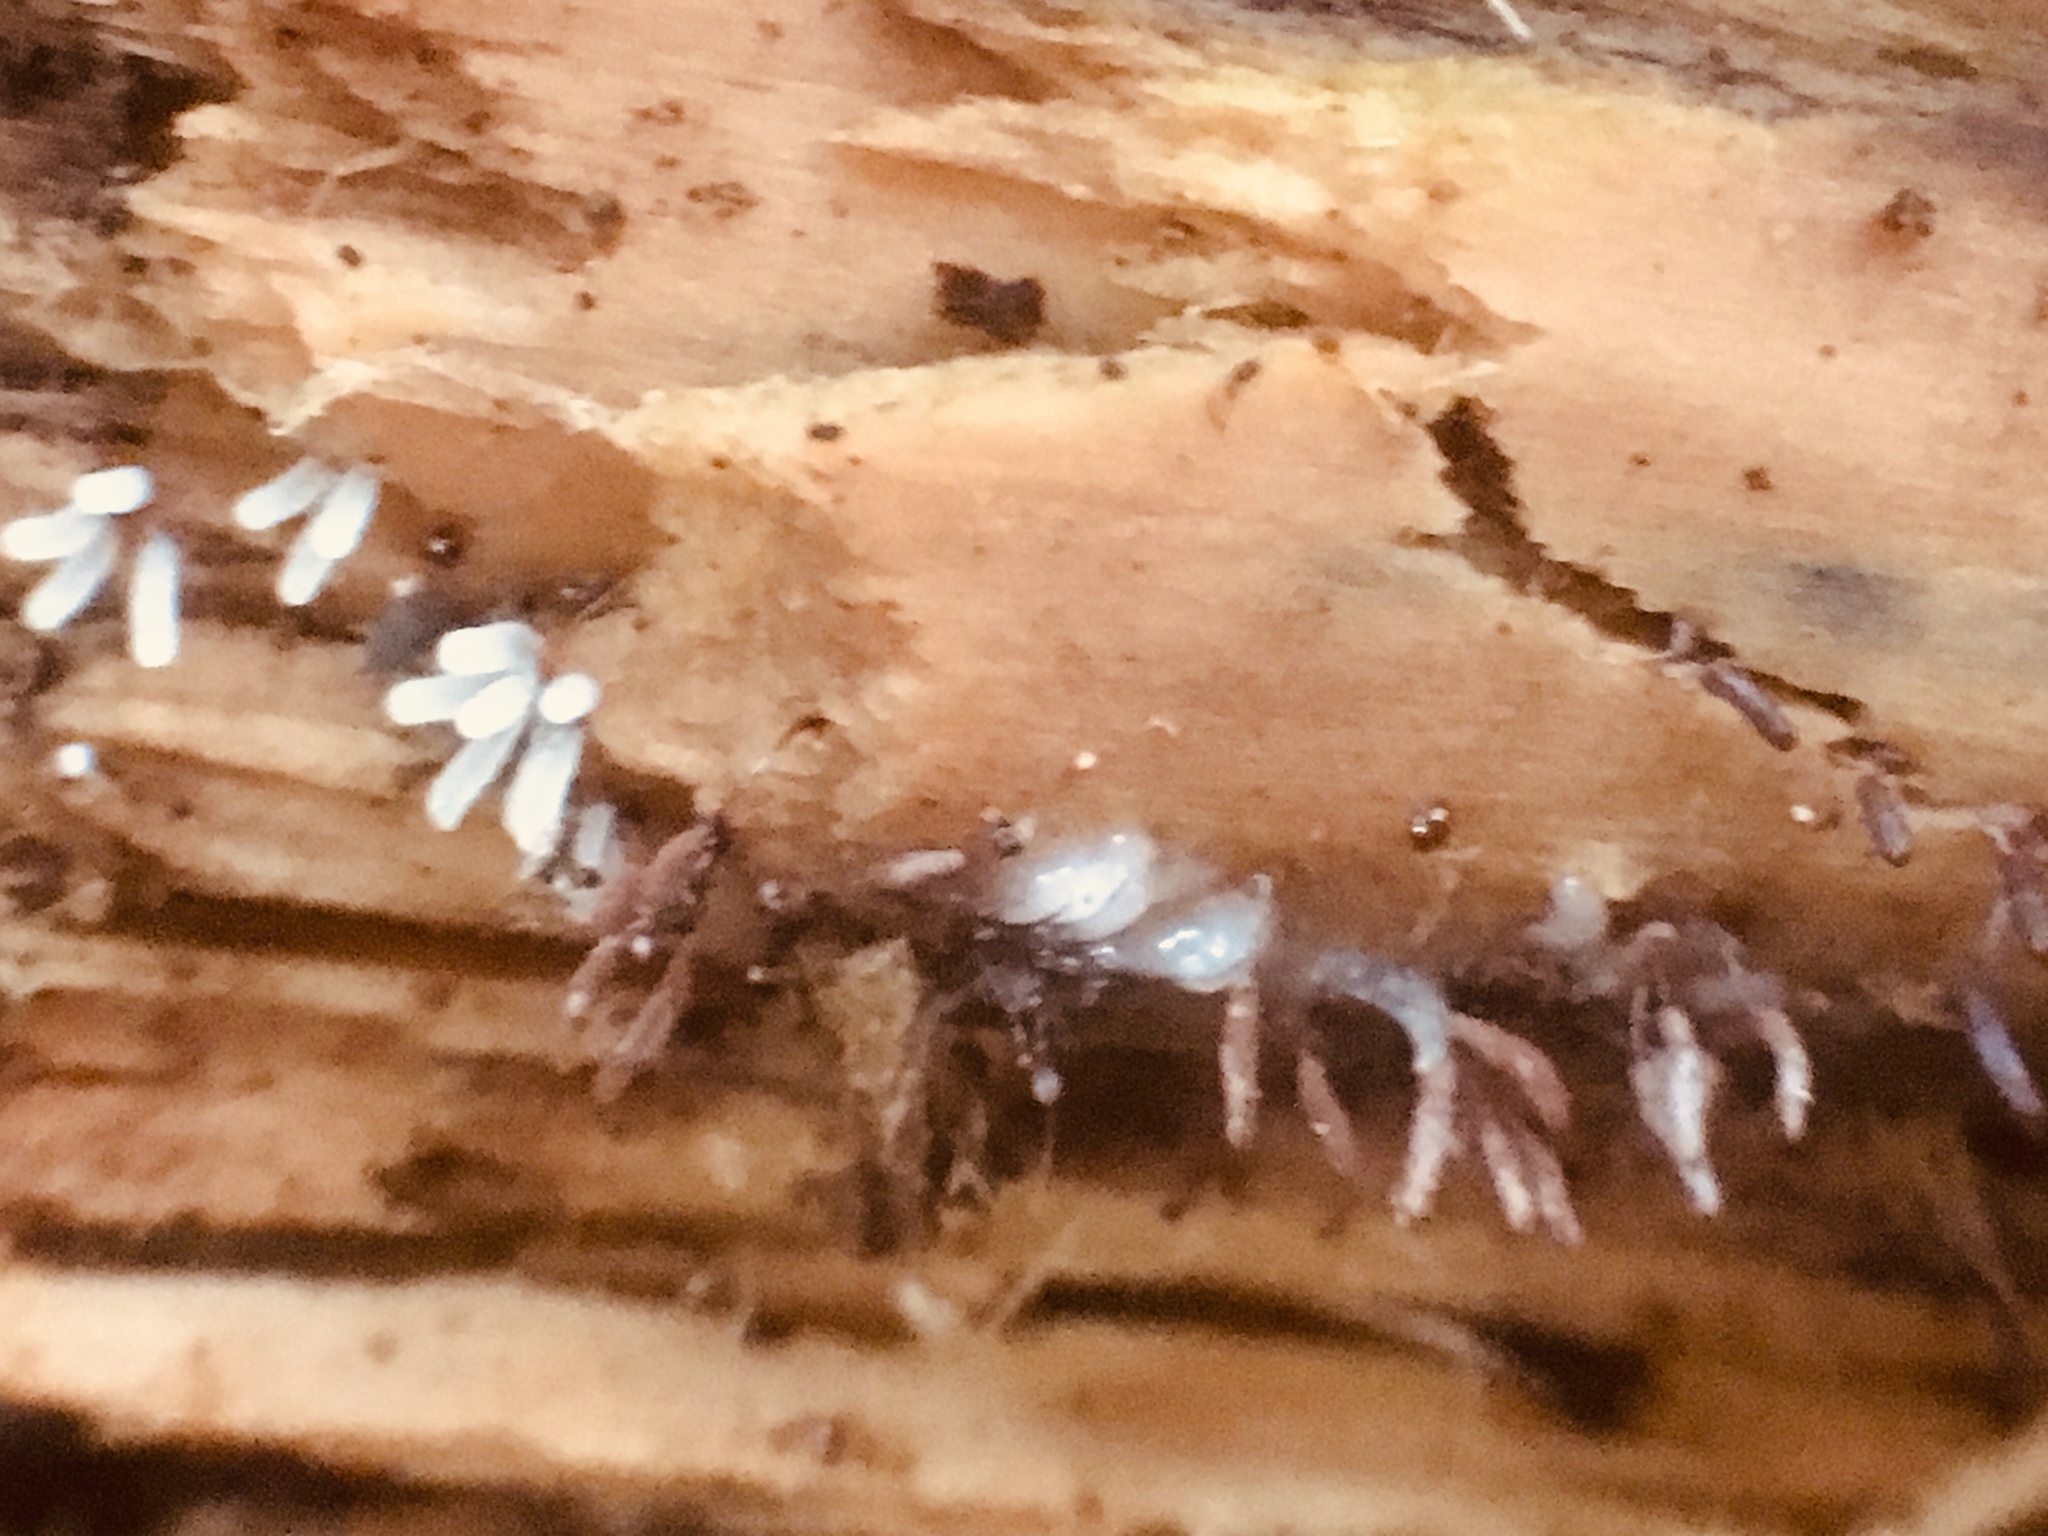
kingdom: Protozoa
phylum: Mycetozoa
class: Myxomycetes
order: Stemonitidales
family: Stemonitidaceae
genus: Stemonitopsis
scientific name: Stemonitopsis typhina
